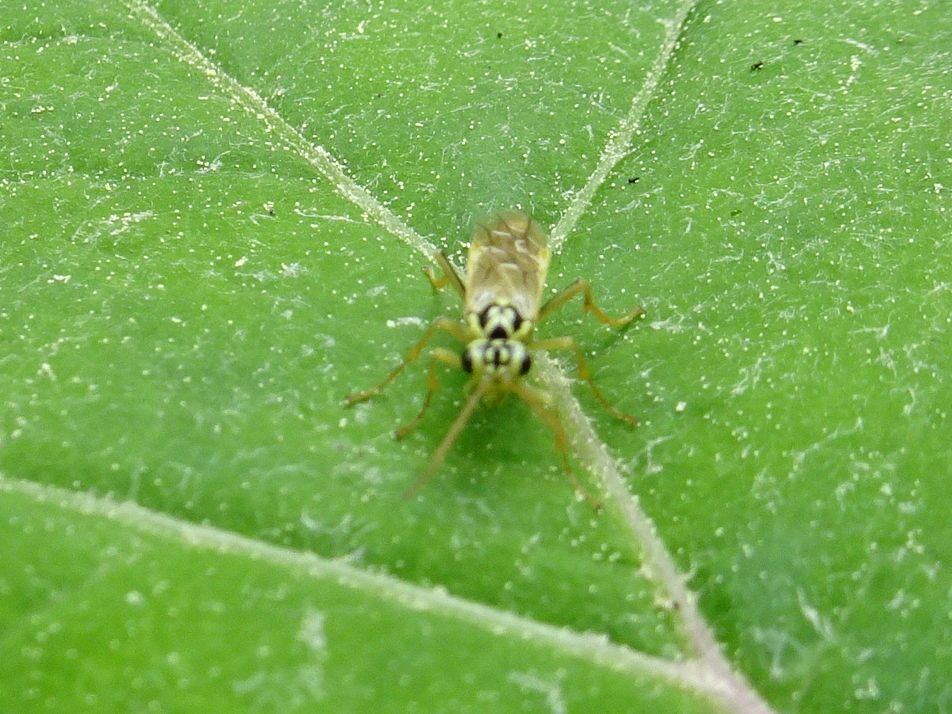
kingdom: Animalia
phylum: Arthropoda
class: Insecta
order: Hymenoptera
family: Tenthredinidae
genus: Aglaostigma
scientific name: Aglaostigma lichtwardti
